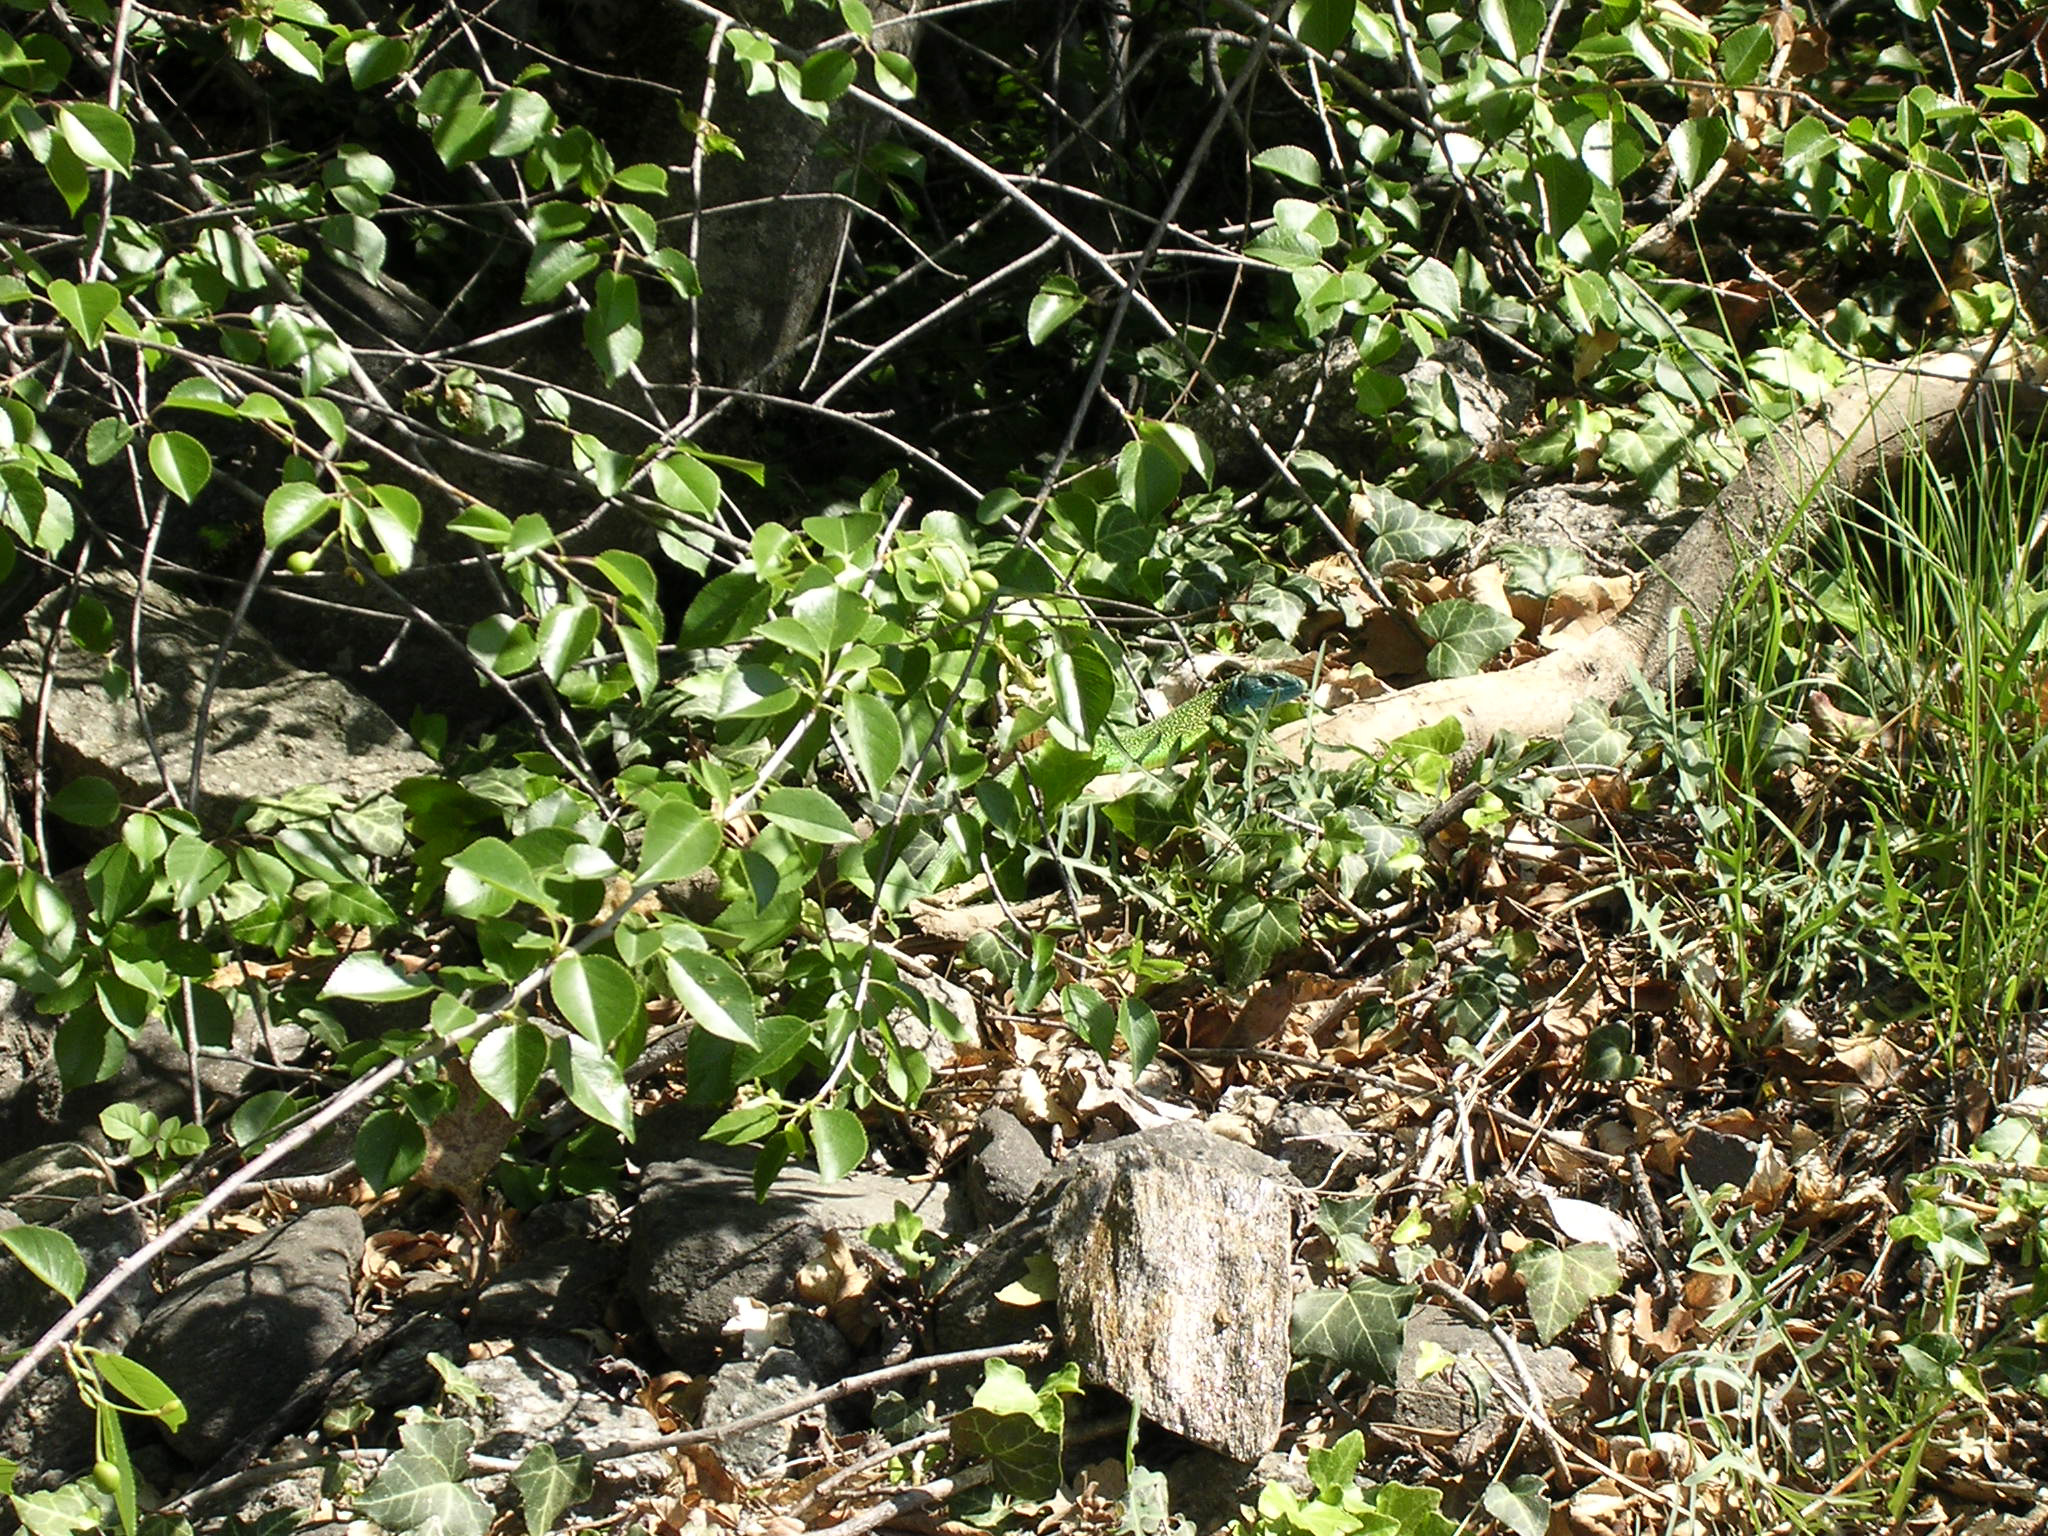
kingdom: Animalia
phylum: Chordata
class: Squamata
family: Lacertidae
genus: Lacerta
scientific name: Lacerta bilineata
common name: Western green lizard
